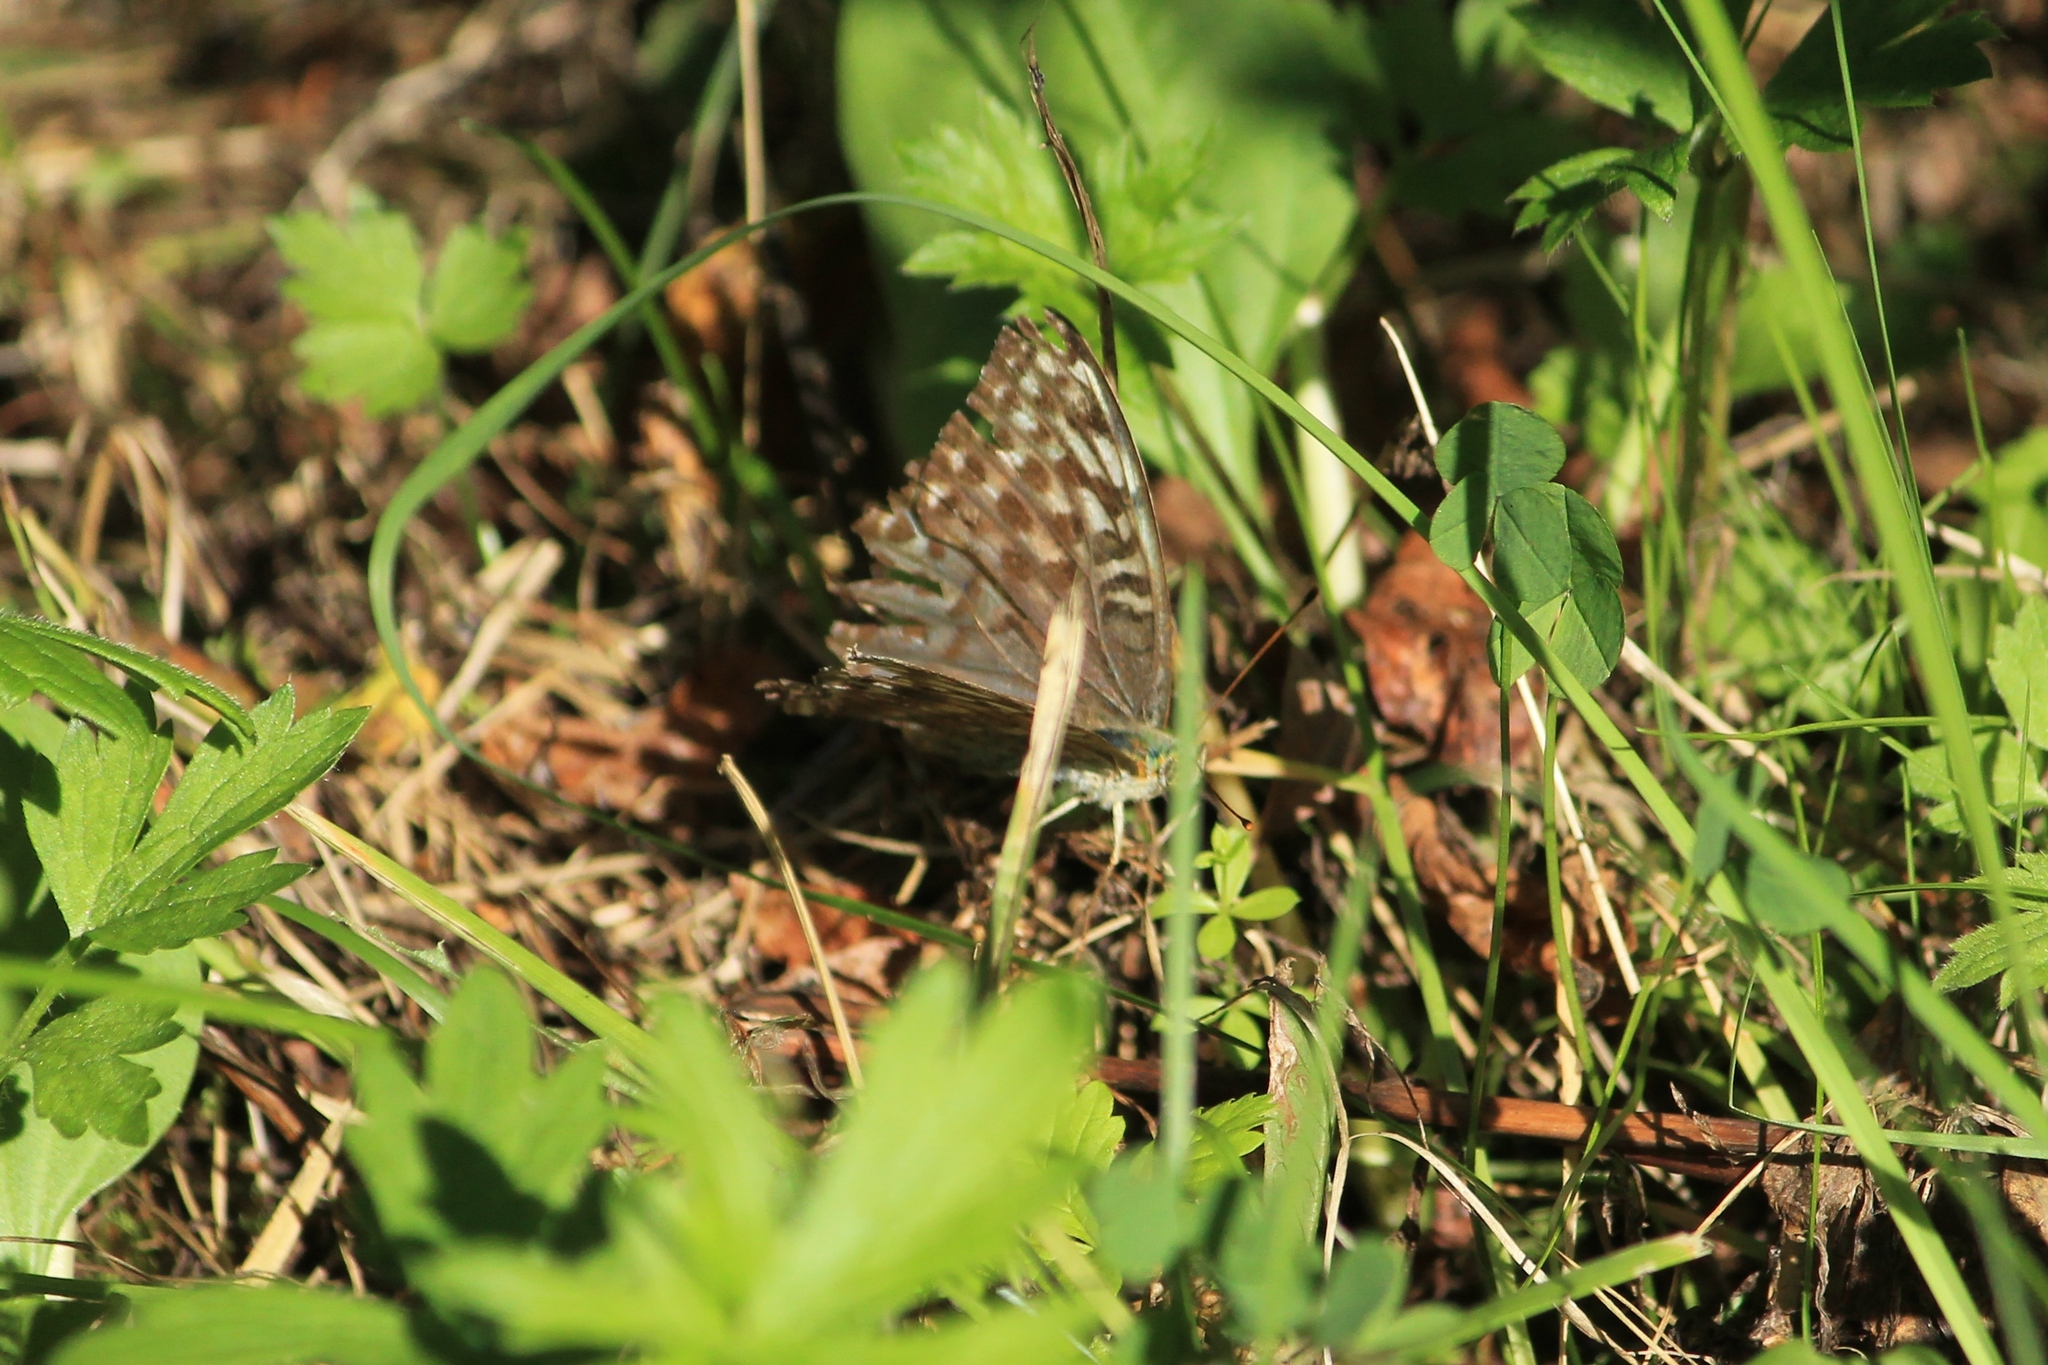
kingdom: Animalia
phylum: Arthropoda
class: Insecta
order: Lepidoptera
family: Nymphalidae
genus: Argynnis
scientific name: Argynnis paphia
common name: Silver-washed fritillary
